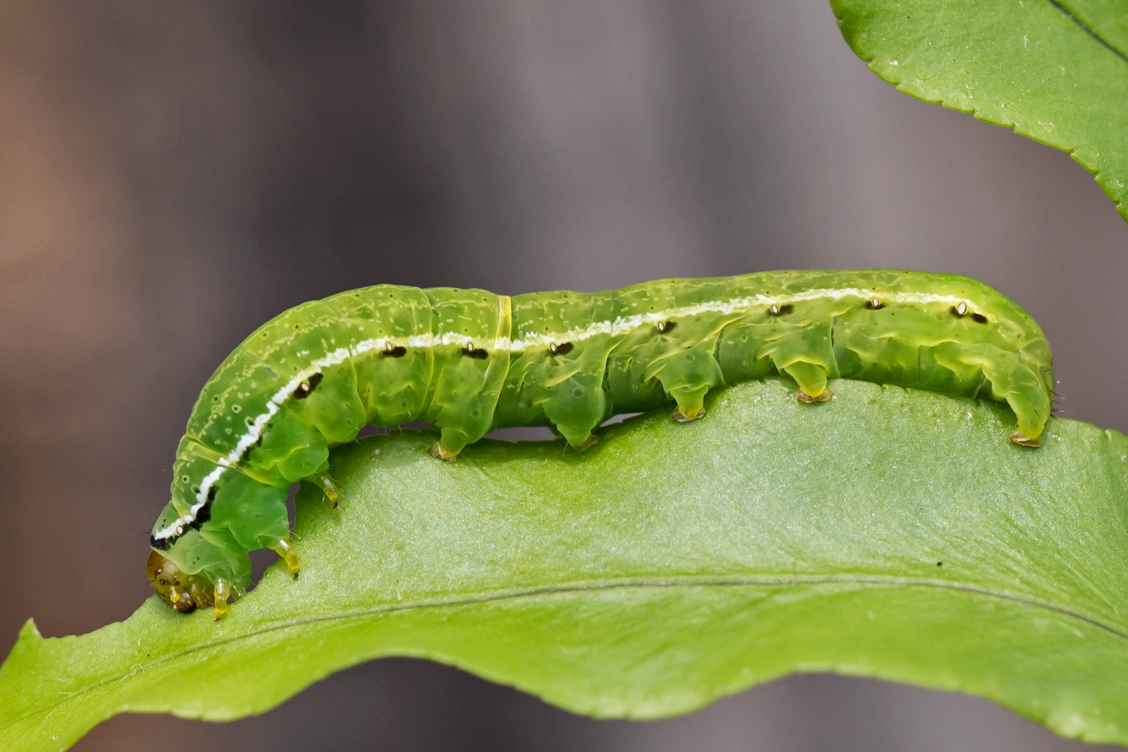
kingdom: Animalia
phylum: Arthropoda
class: Insecta
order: Lepidoptera
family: Noctuidae
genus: Callopistria
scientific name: Callopistria floridensis
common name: Florida fern moth
